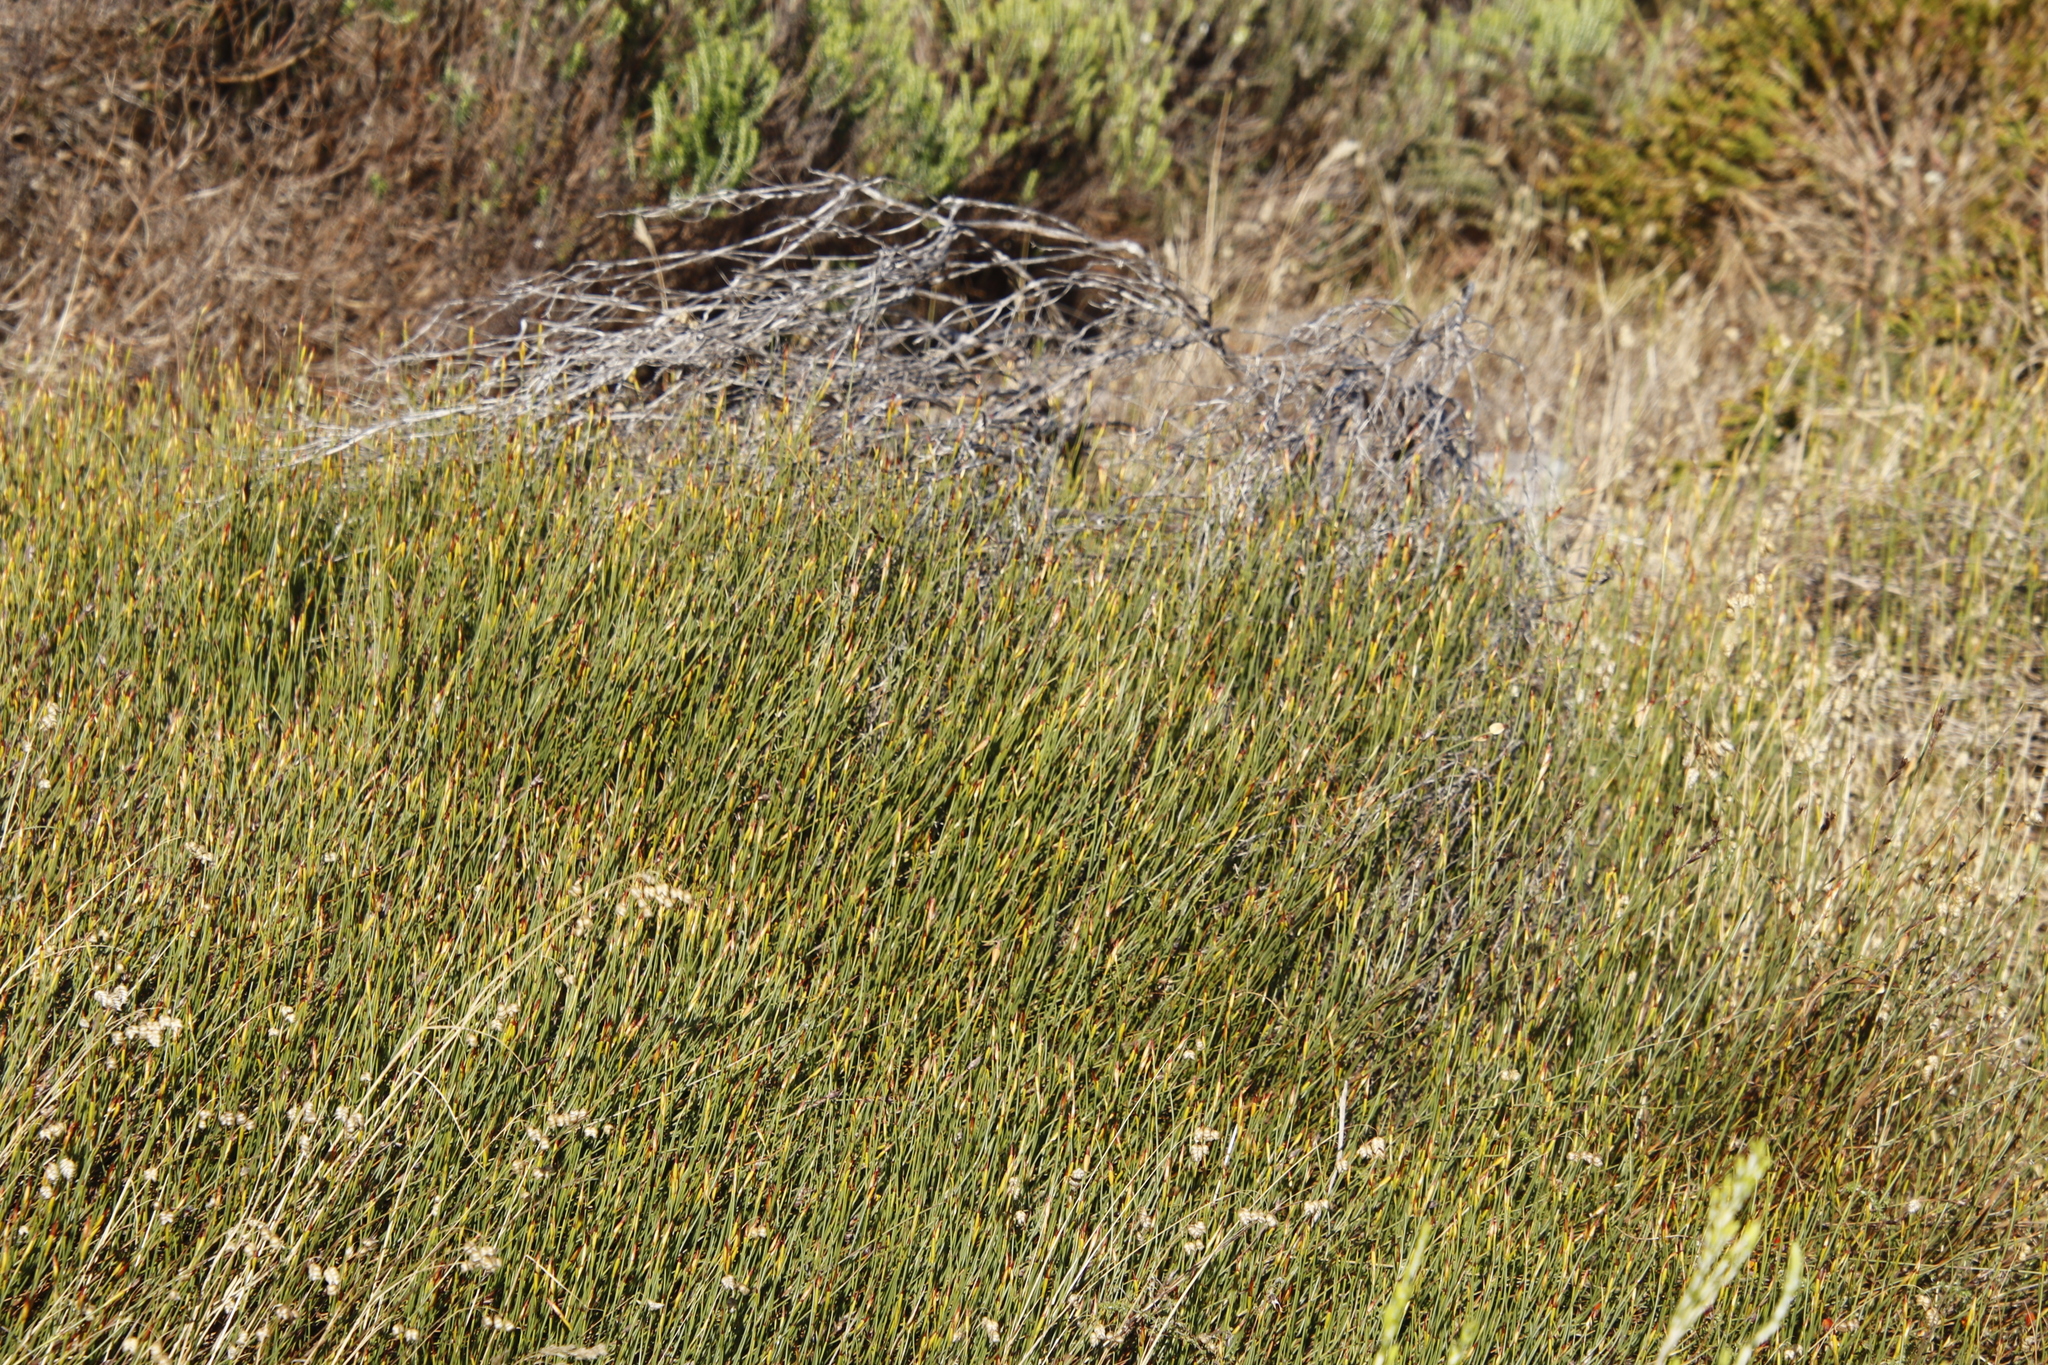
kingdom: Plantae
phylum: Tracheophyta
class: Liliopsida
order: Poales
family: Restionaceae
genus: Willdenowia
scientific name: Willdenowia sulcata
